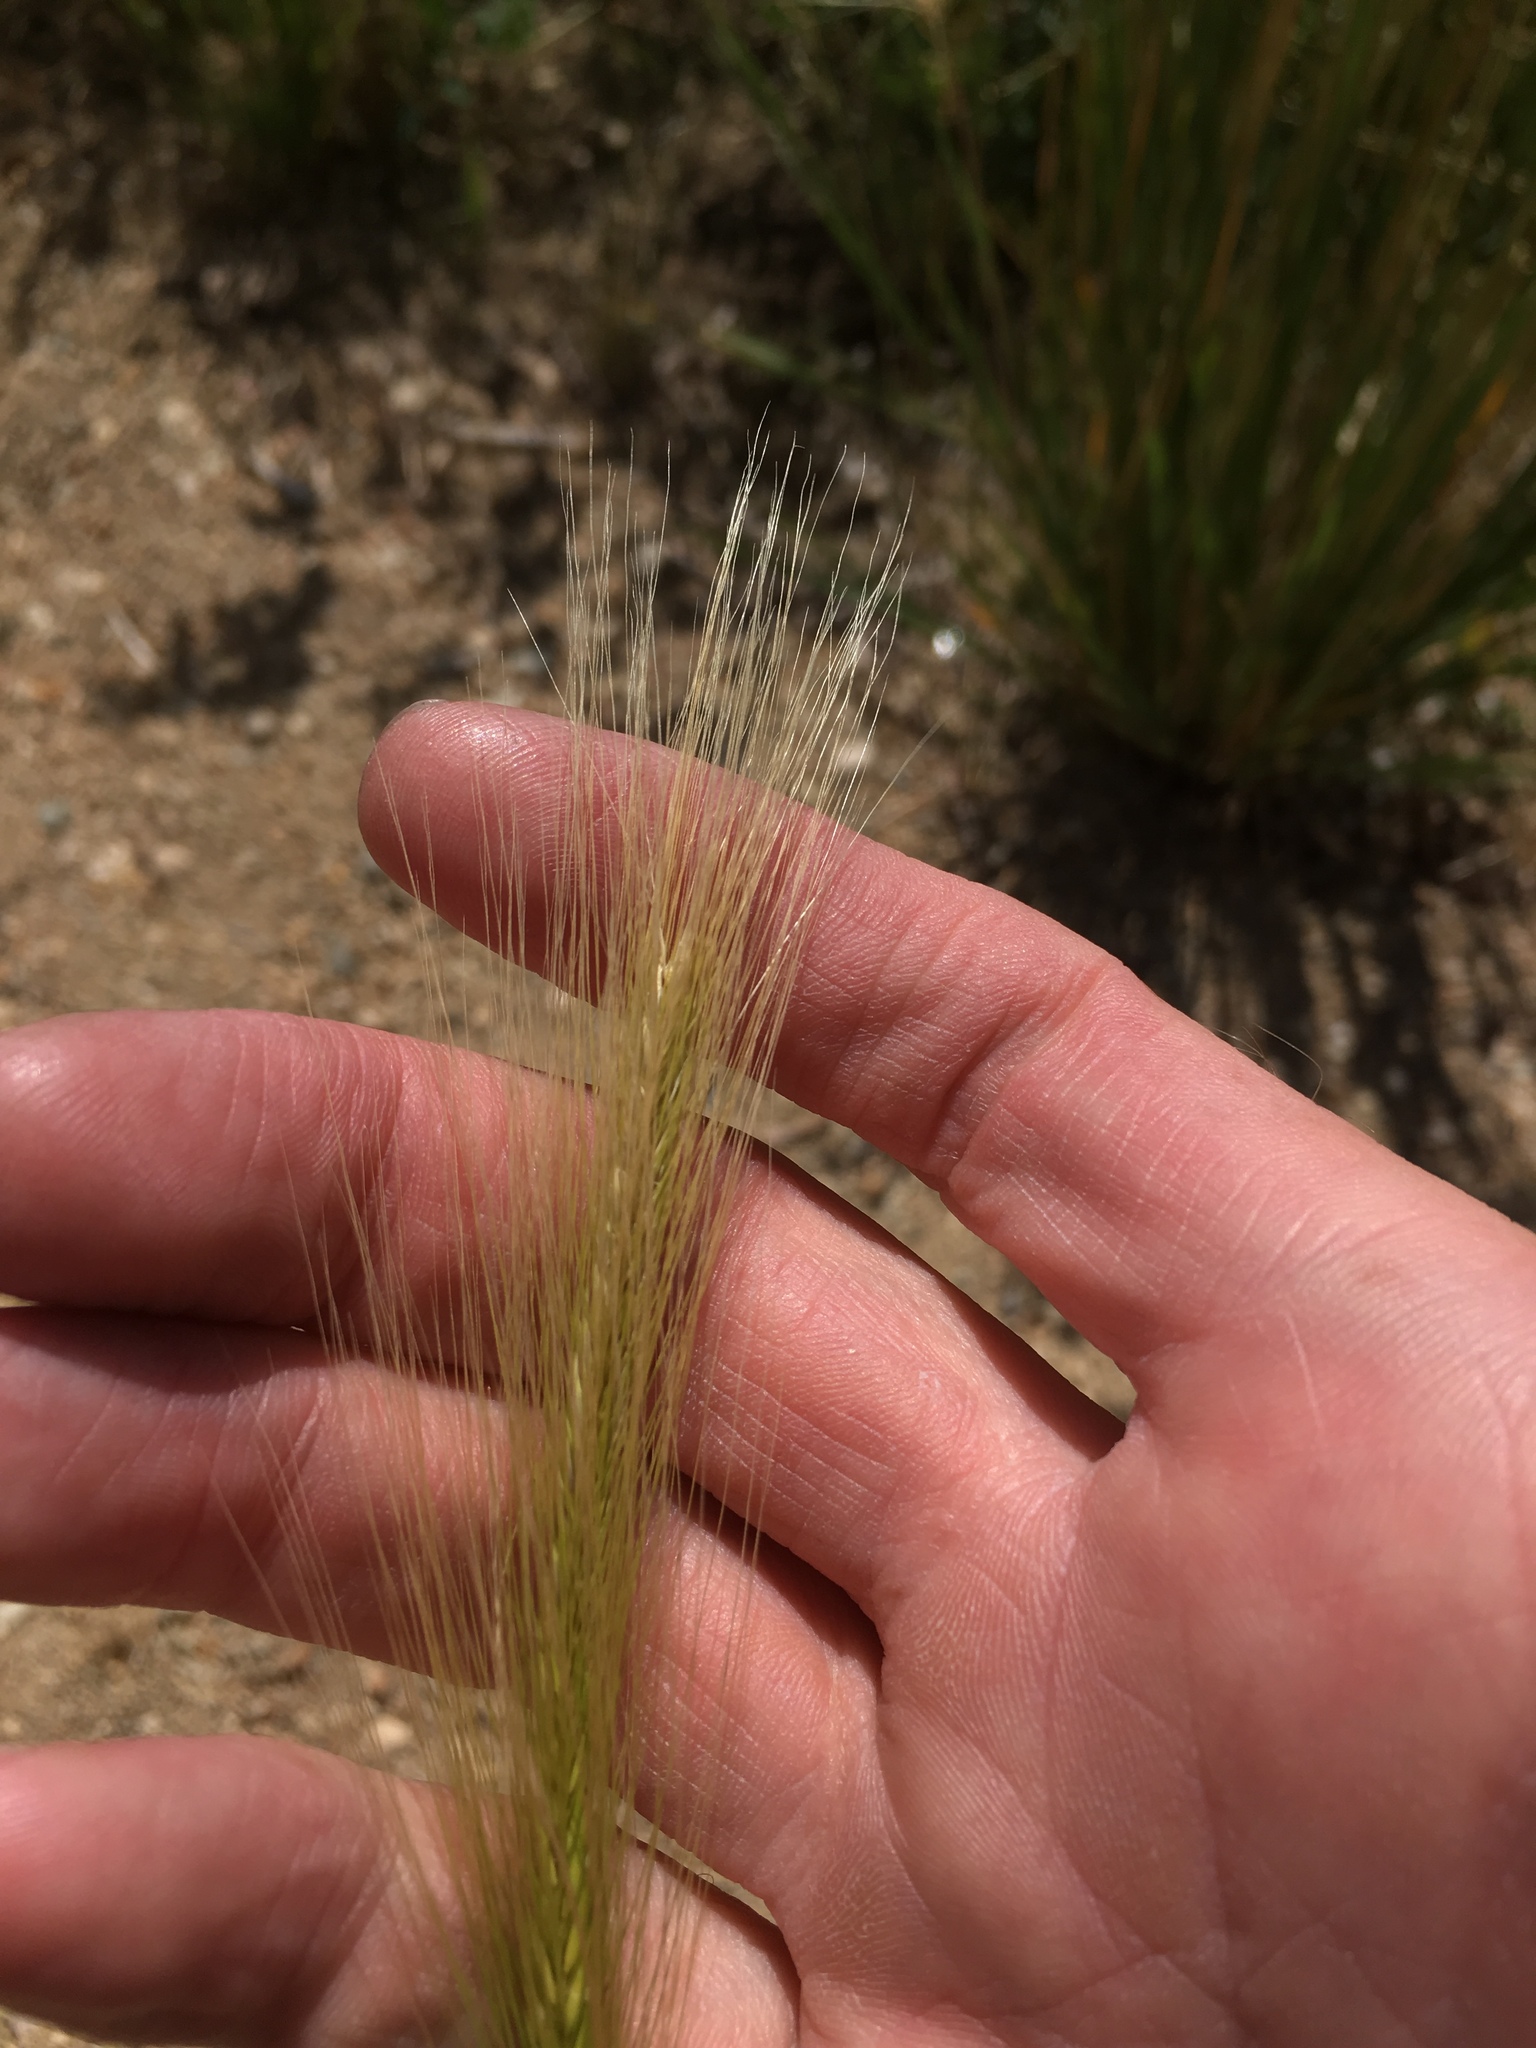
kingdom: Plantae
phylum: Tracheophyta
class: Liliopsida
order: Poales
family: Poaceae
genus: Hordeum
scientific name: Hordeum jubatum
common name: Foxtail barley
